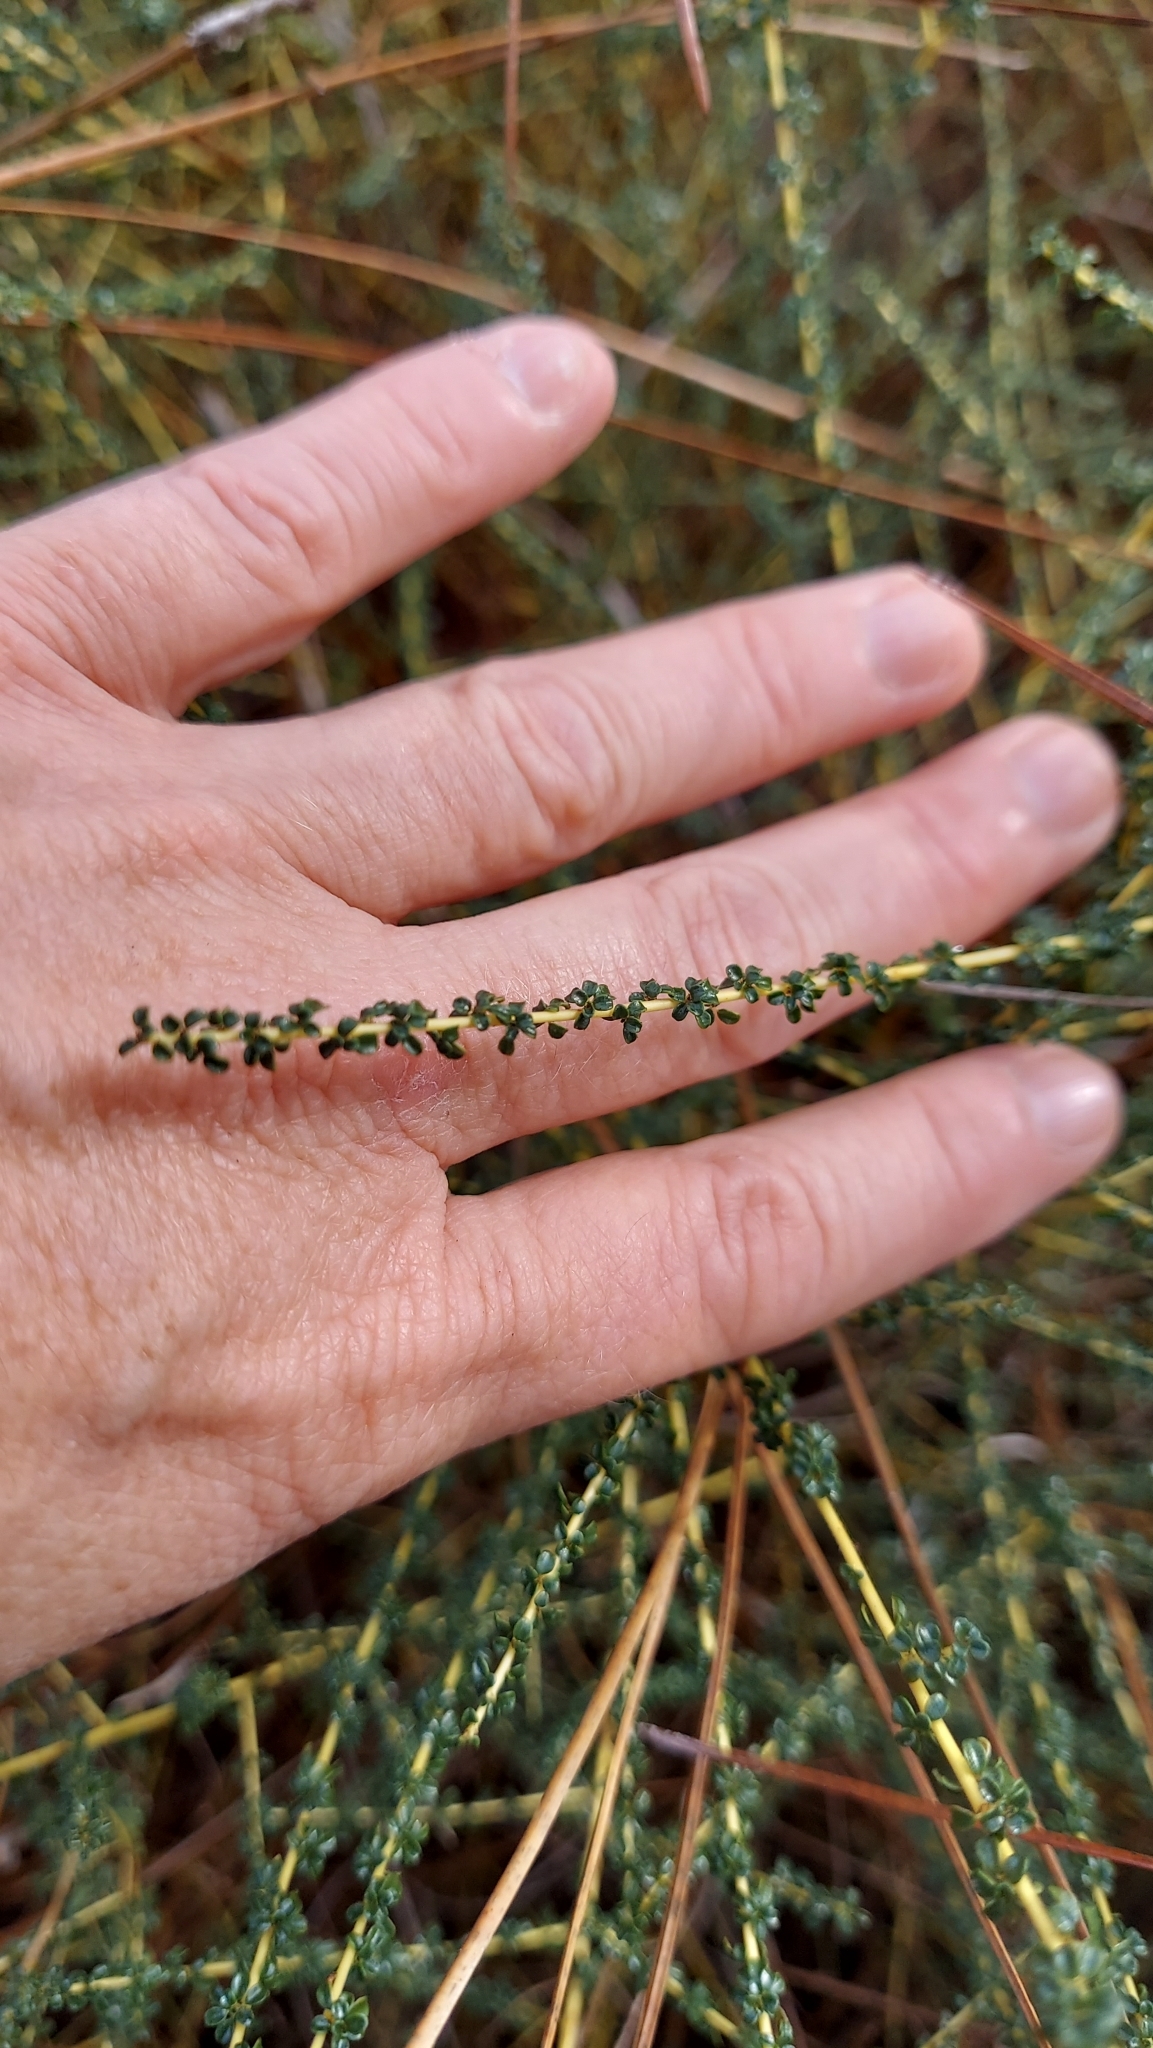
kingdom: Plantae
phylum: Tracheophyta
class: Magnoliopsida
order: Rosales
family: Rhamnaceae
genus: Ceanothus
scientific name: Ceanothus microphyllus
